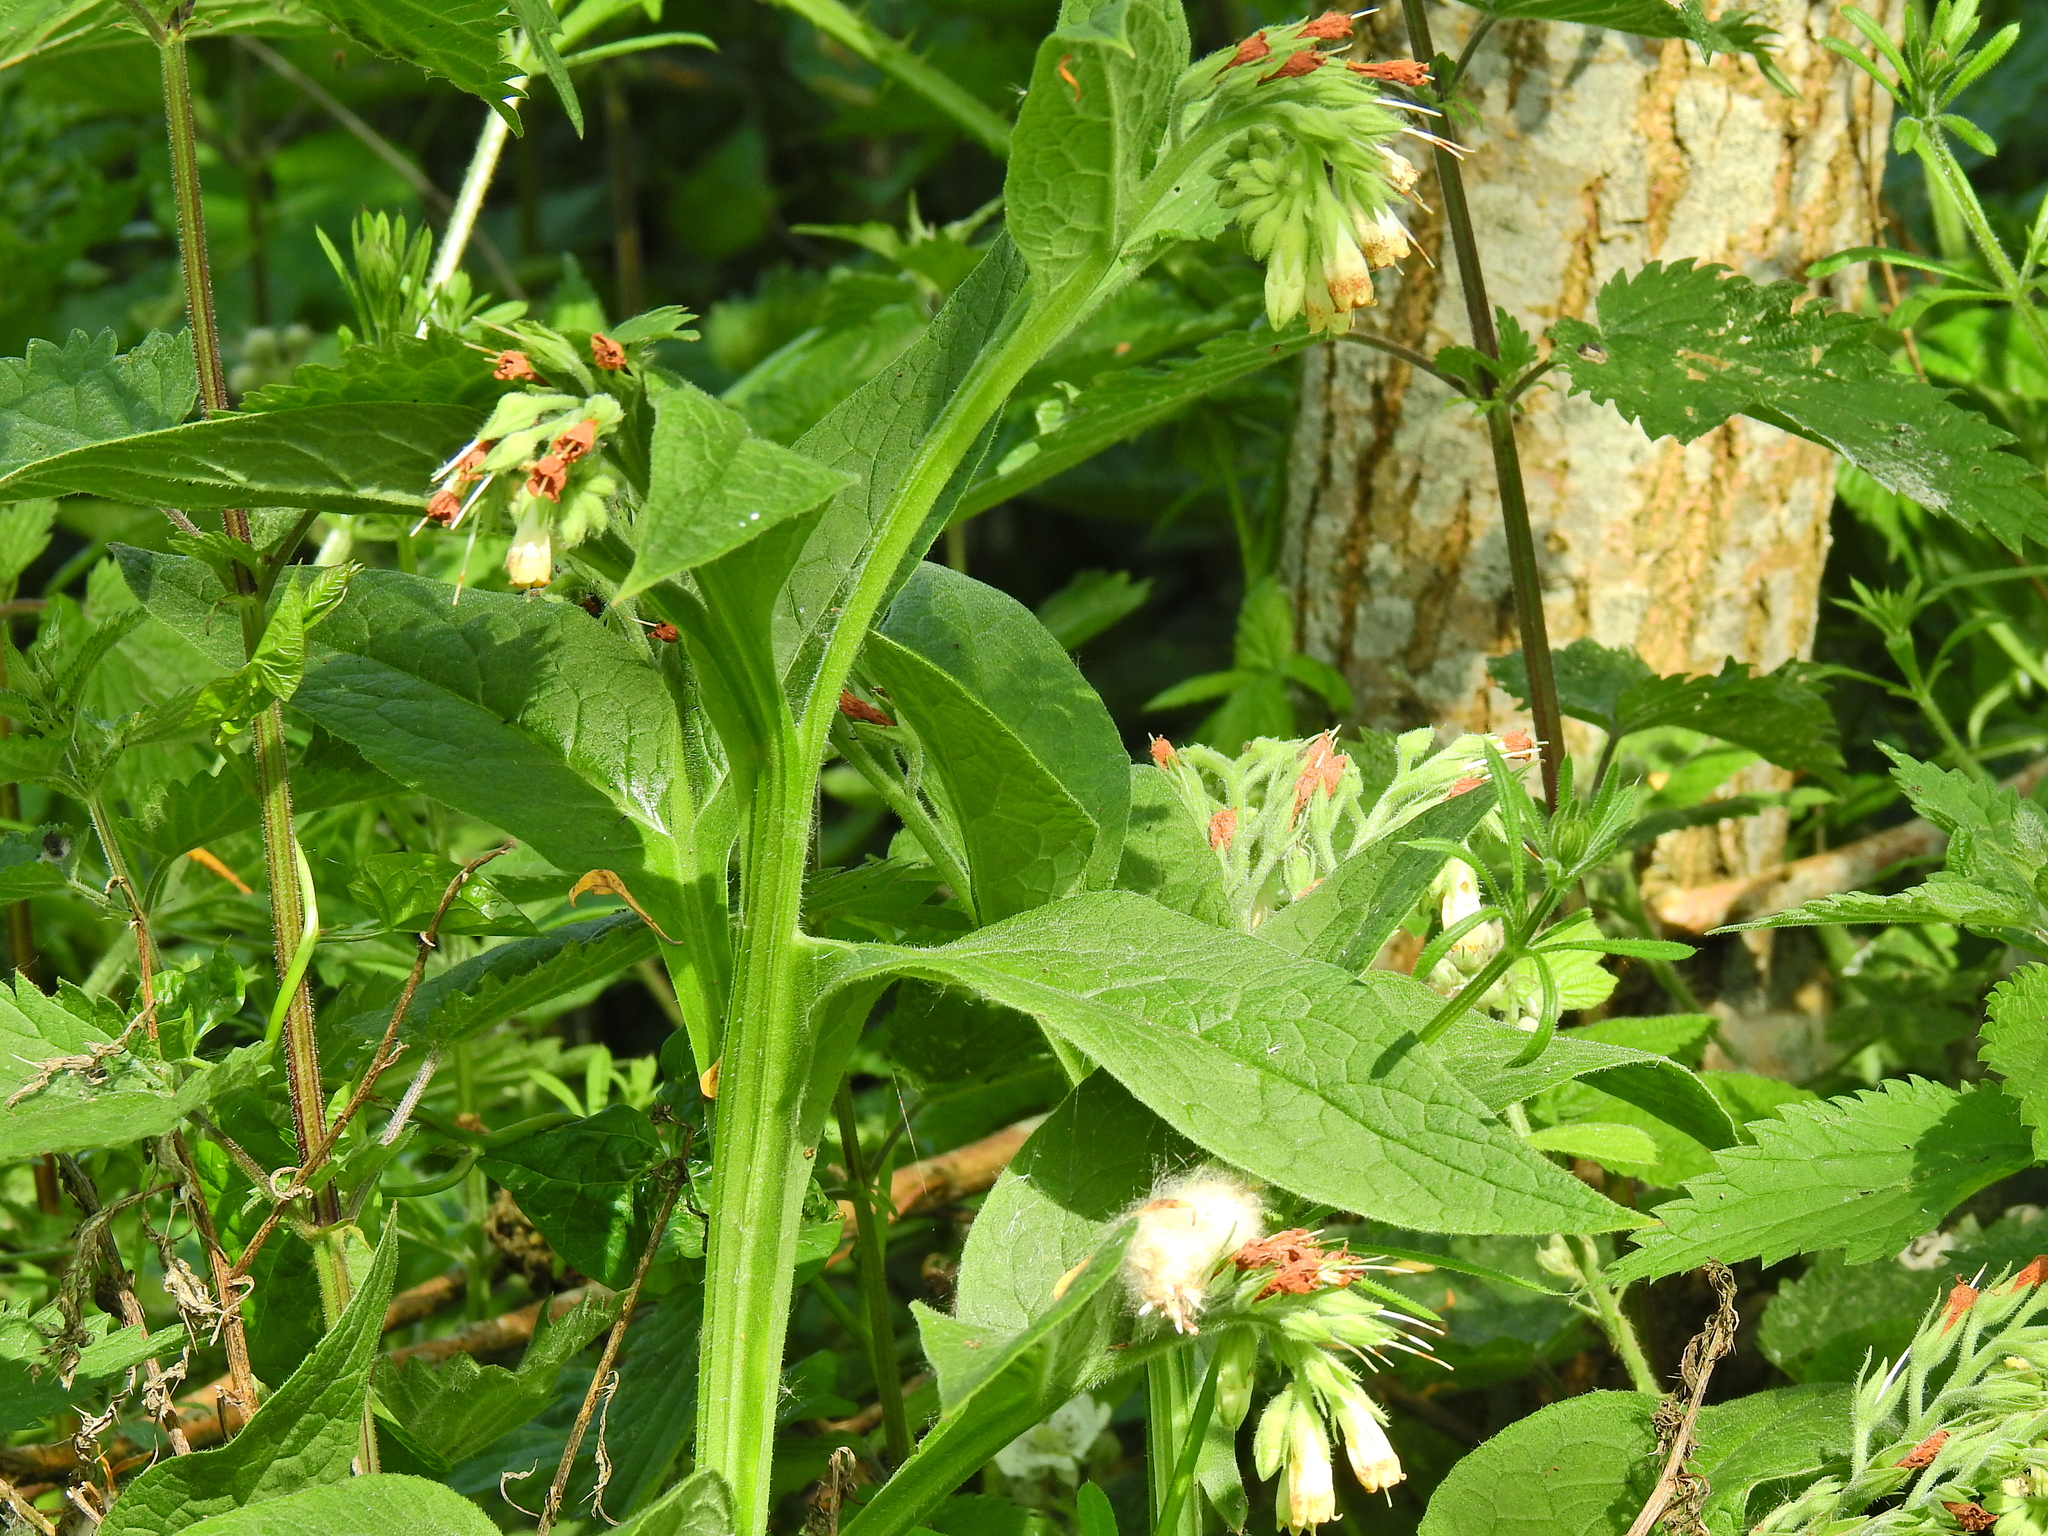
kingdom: Plantae
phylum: Tracheophyta
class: Magnoliopsida
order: Boraginales
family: Boraginaceae
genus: Symphytum
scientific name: Symphytum officinale
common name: Common comfrey
